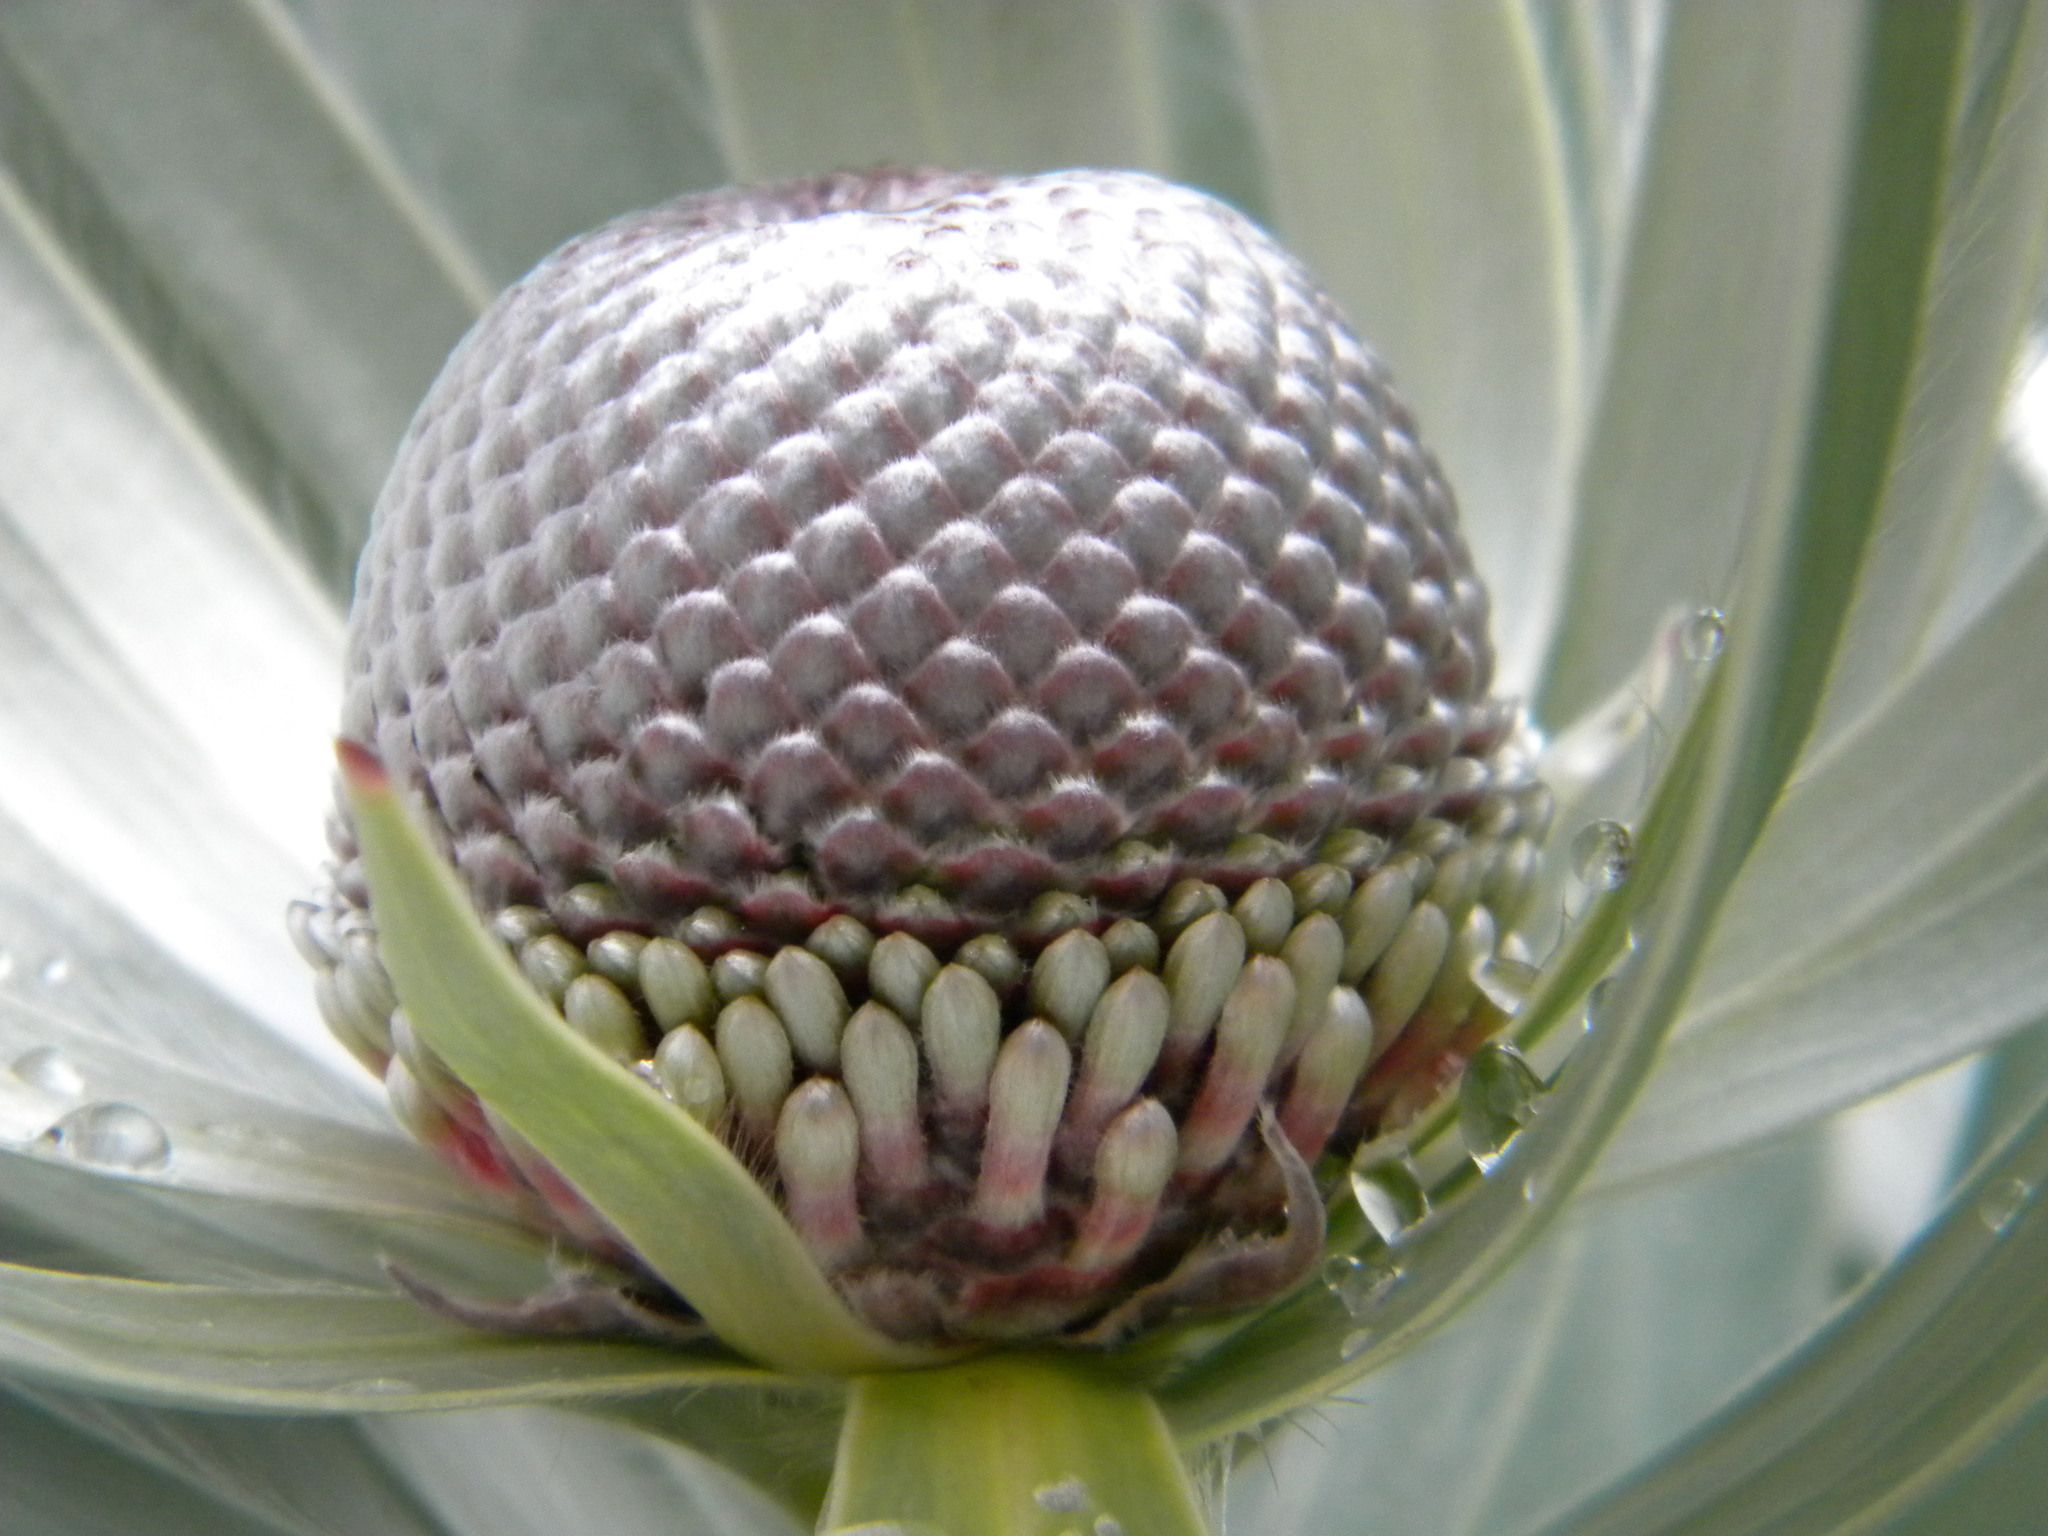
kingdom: Plantae
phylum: Tracheophyta
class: Magnoliopsida
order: Proteales
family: Proteaceae
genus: Leucadendron
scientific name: Leucadendron argenteum
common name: Cape silver tree
